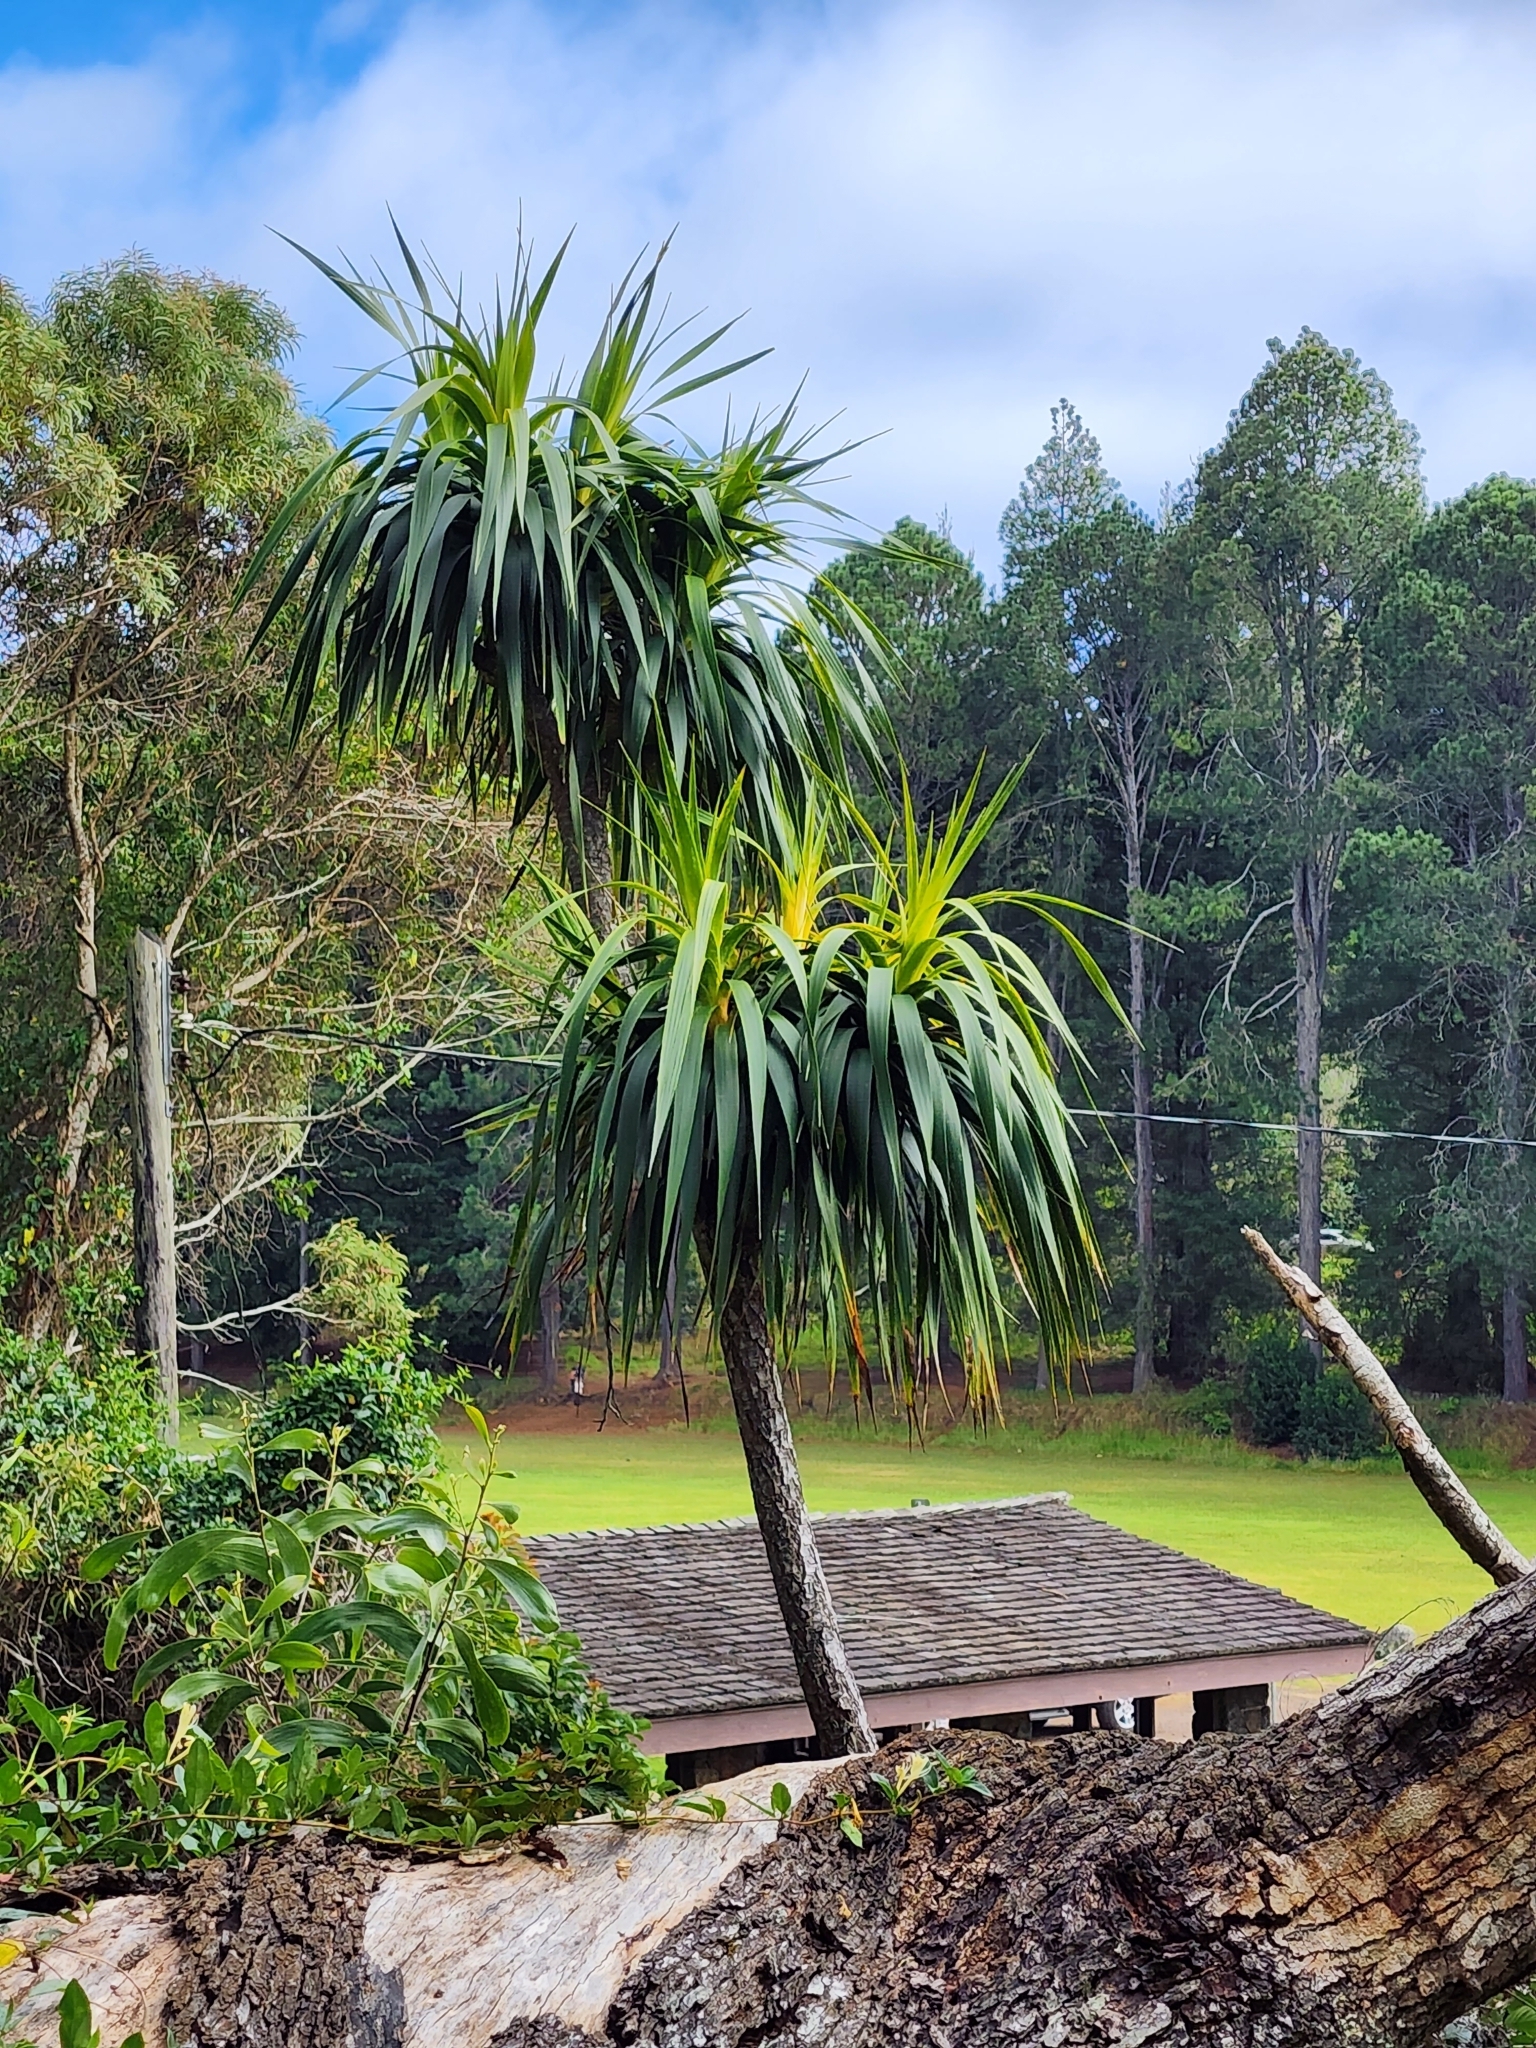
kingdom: Plantae
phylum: Tracheophyta
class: Liliopsida
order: Asparagales
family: Asparagaceae
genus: Dracaena
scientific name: Dracaena aurea
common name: Golden dracaena
